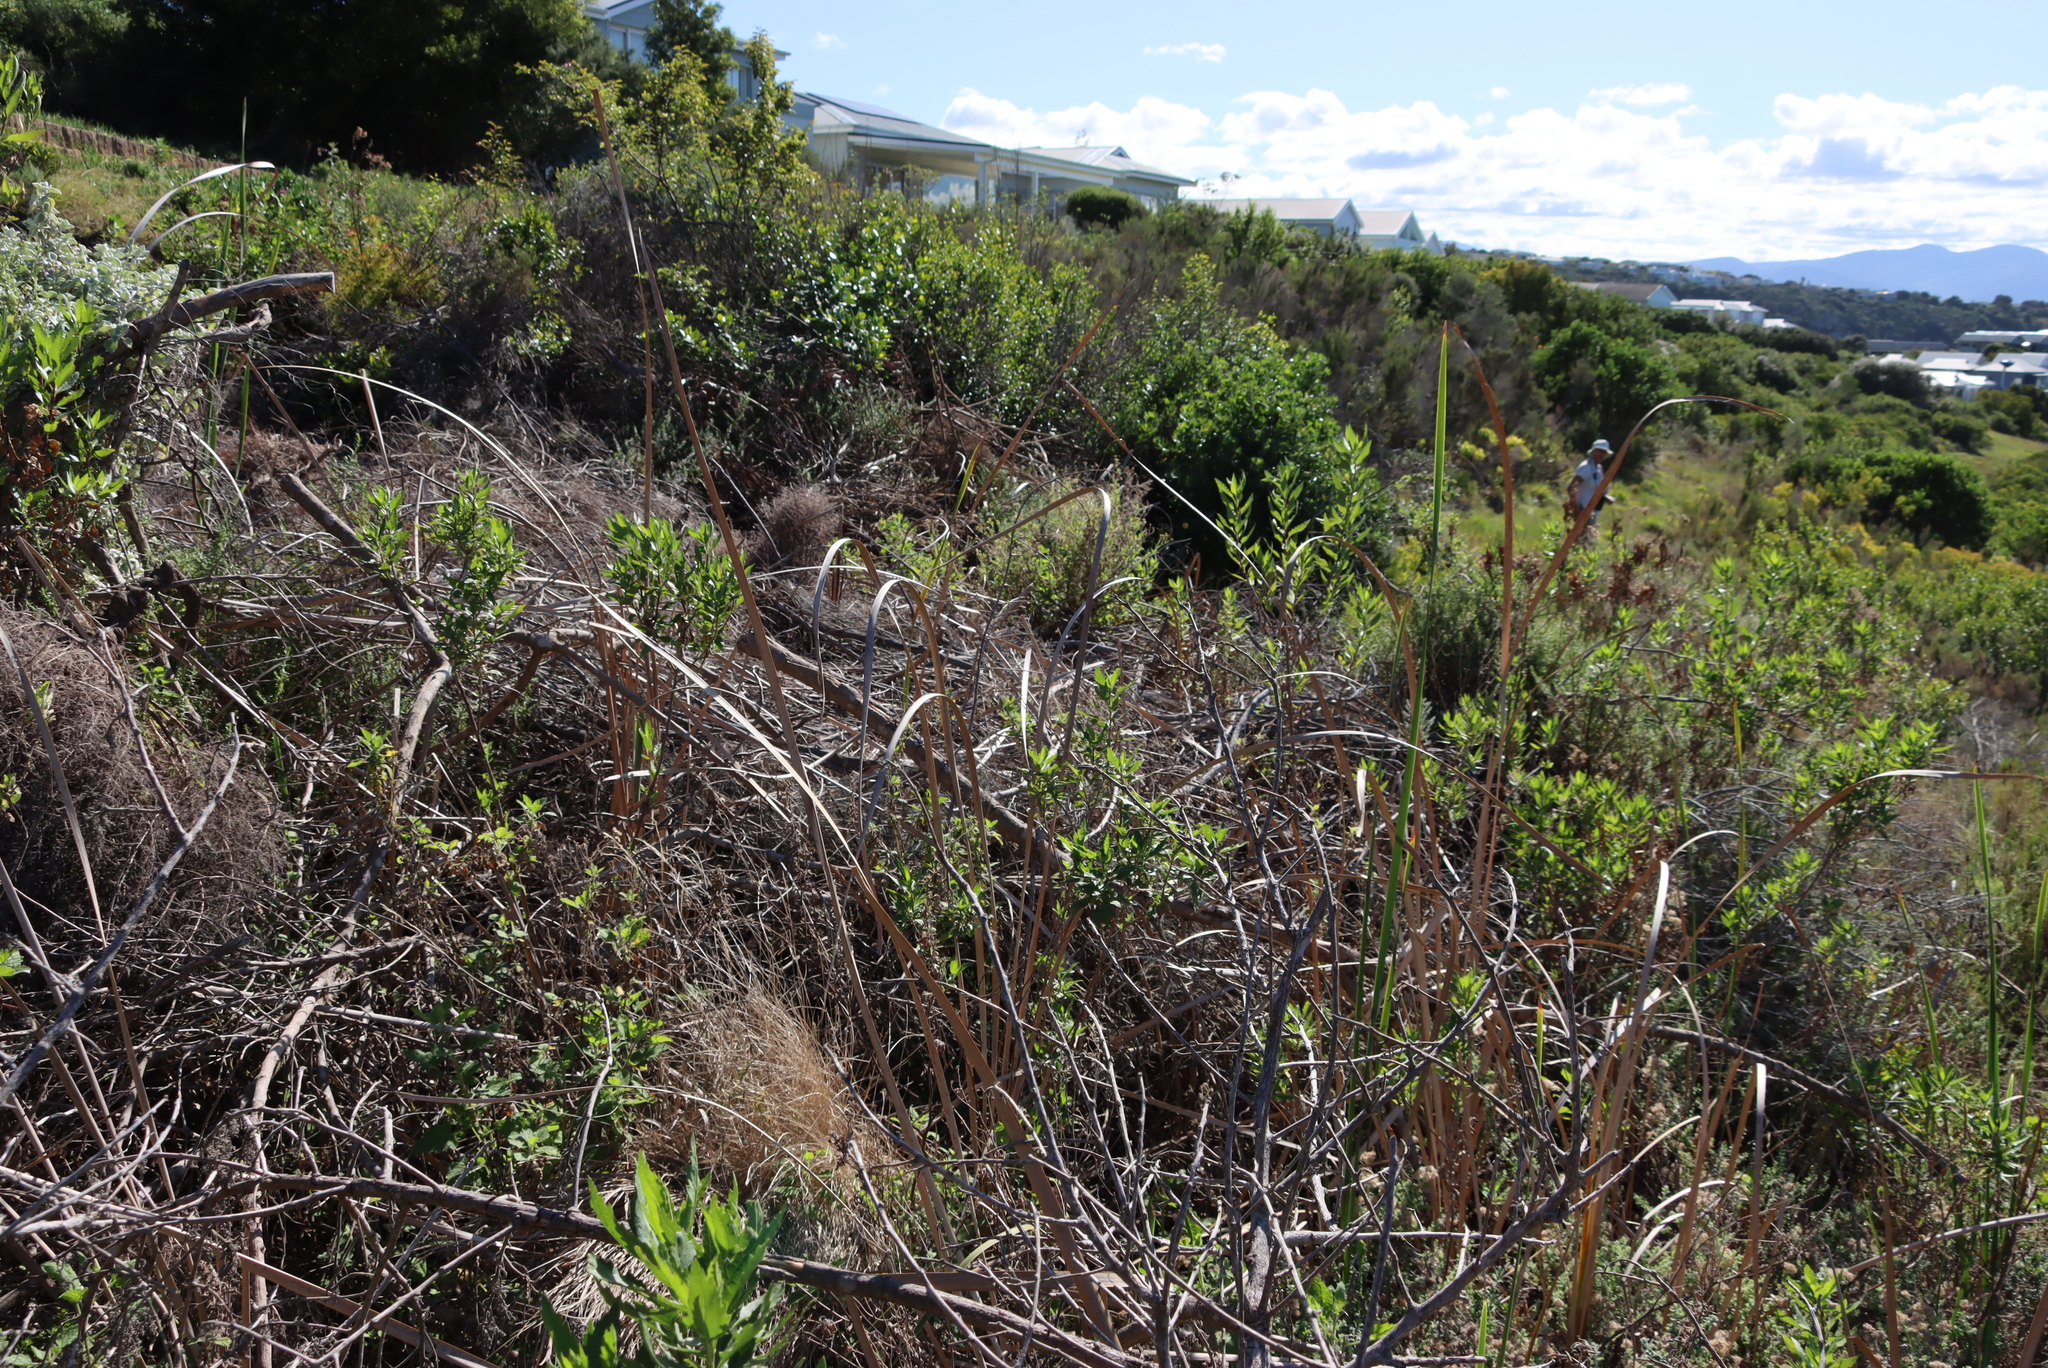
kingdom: Plantae
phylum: Tracheophyta
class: Liliopsida
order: Poales
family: Typhaceae
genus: Typha
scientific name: Typha capensis
